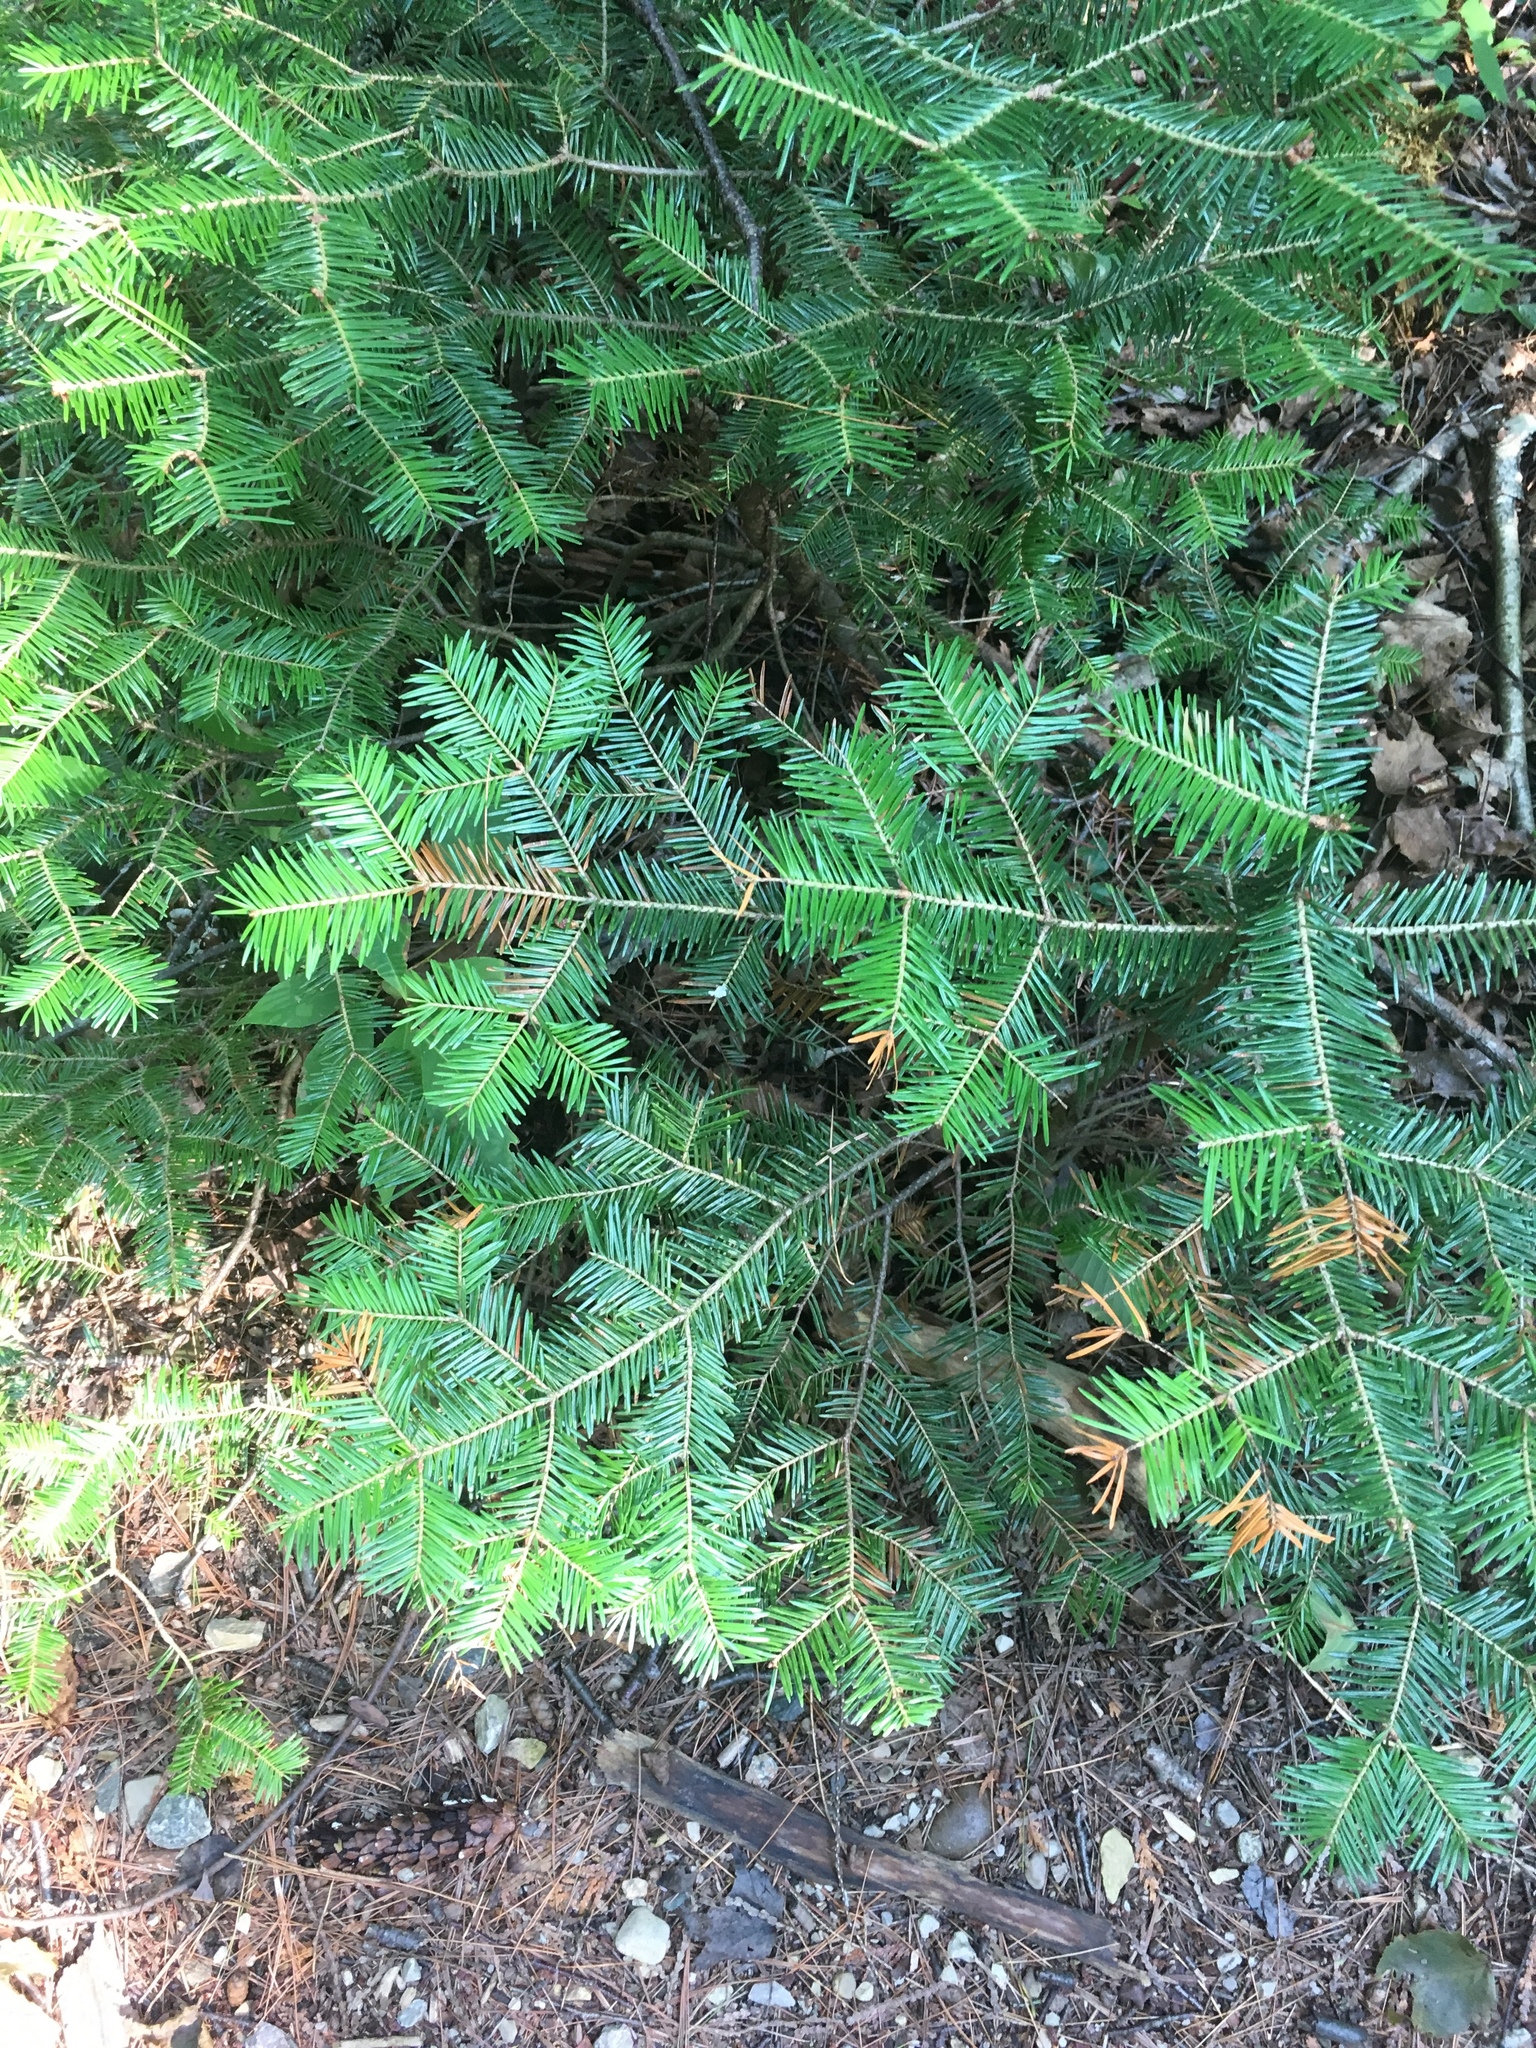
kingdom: Plantae
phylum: Tracheophyta
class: Pinopsida
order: Pinales
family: Pinaceae
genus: Abies
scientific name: Abies balsamea
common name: Balsam fir
